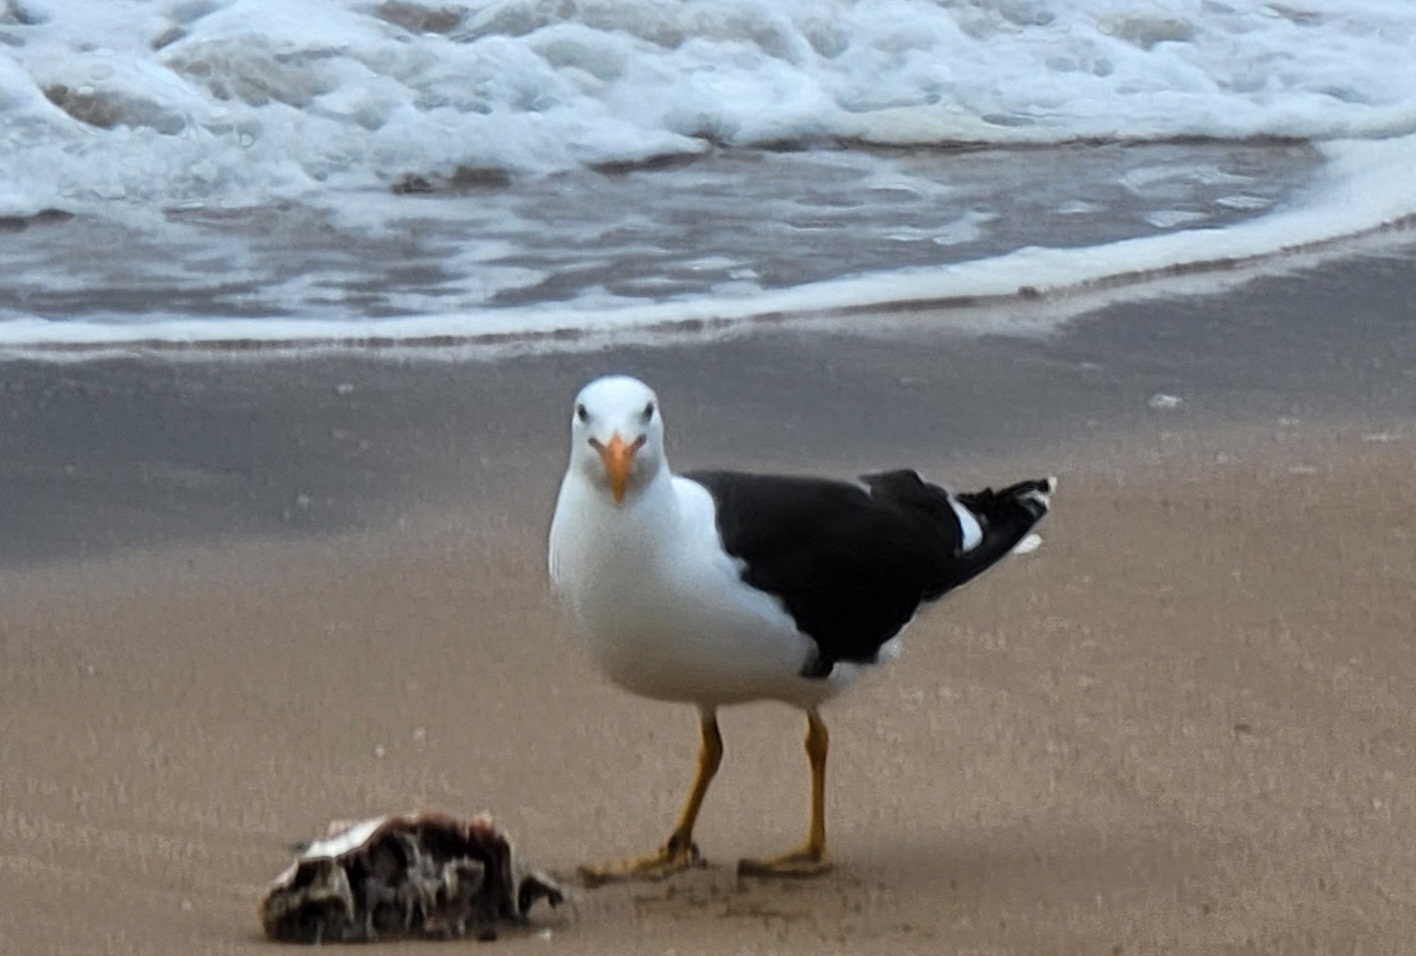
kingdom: Animalia
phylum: Chordata
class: Aves
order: Charadriiformes
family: Laridae
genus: Larus
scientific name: Larus dominicanus
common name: Kelp gull
